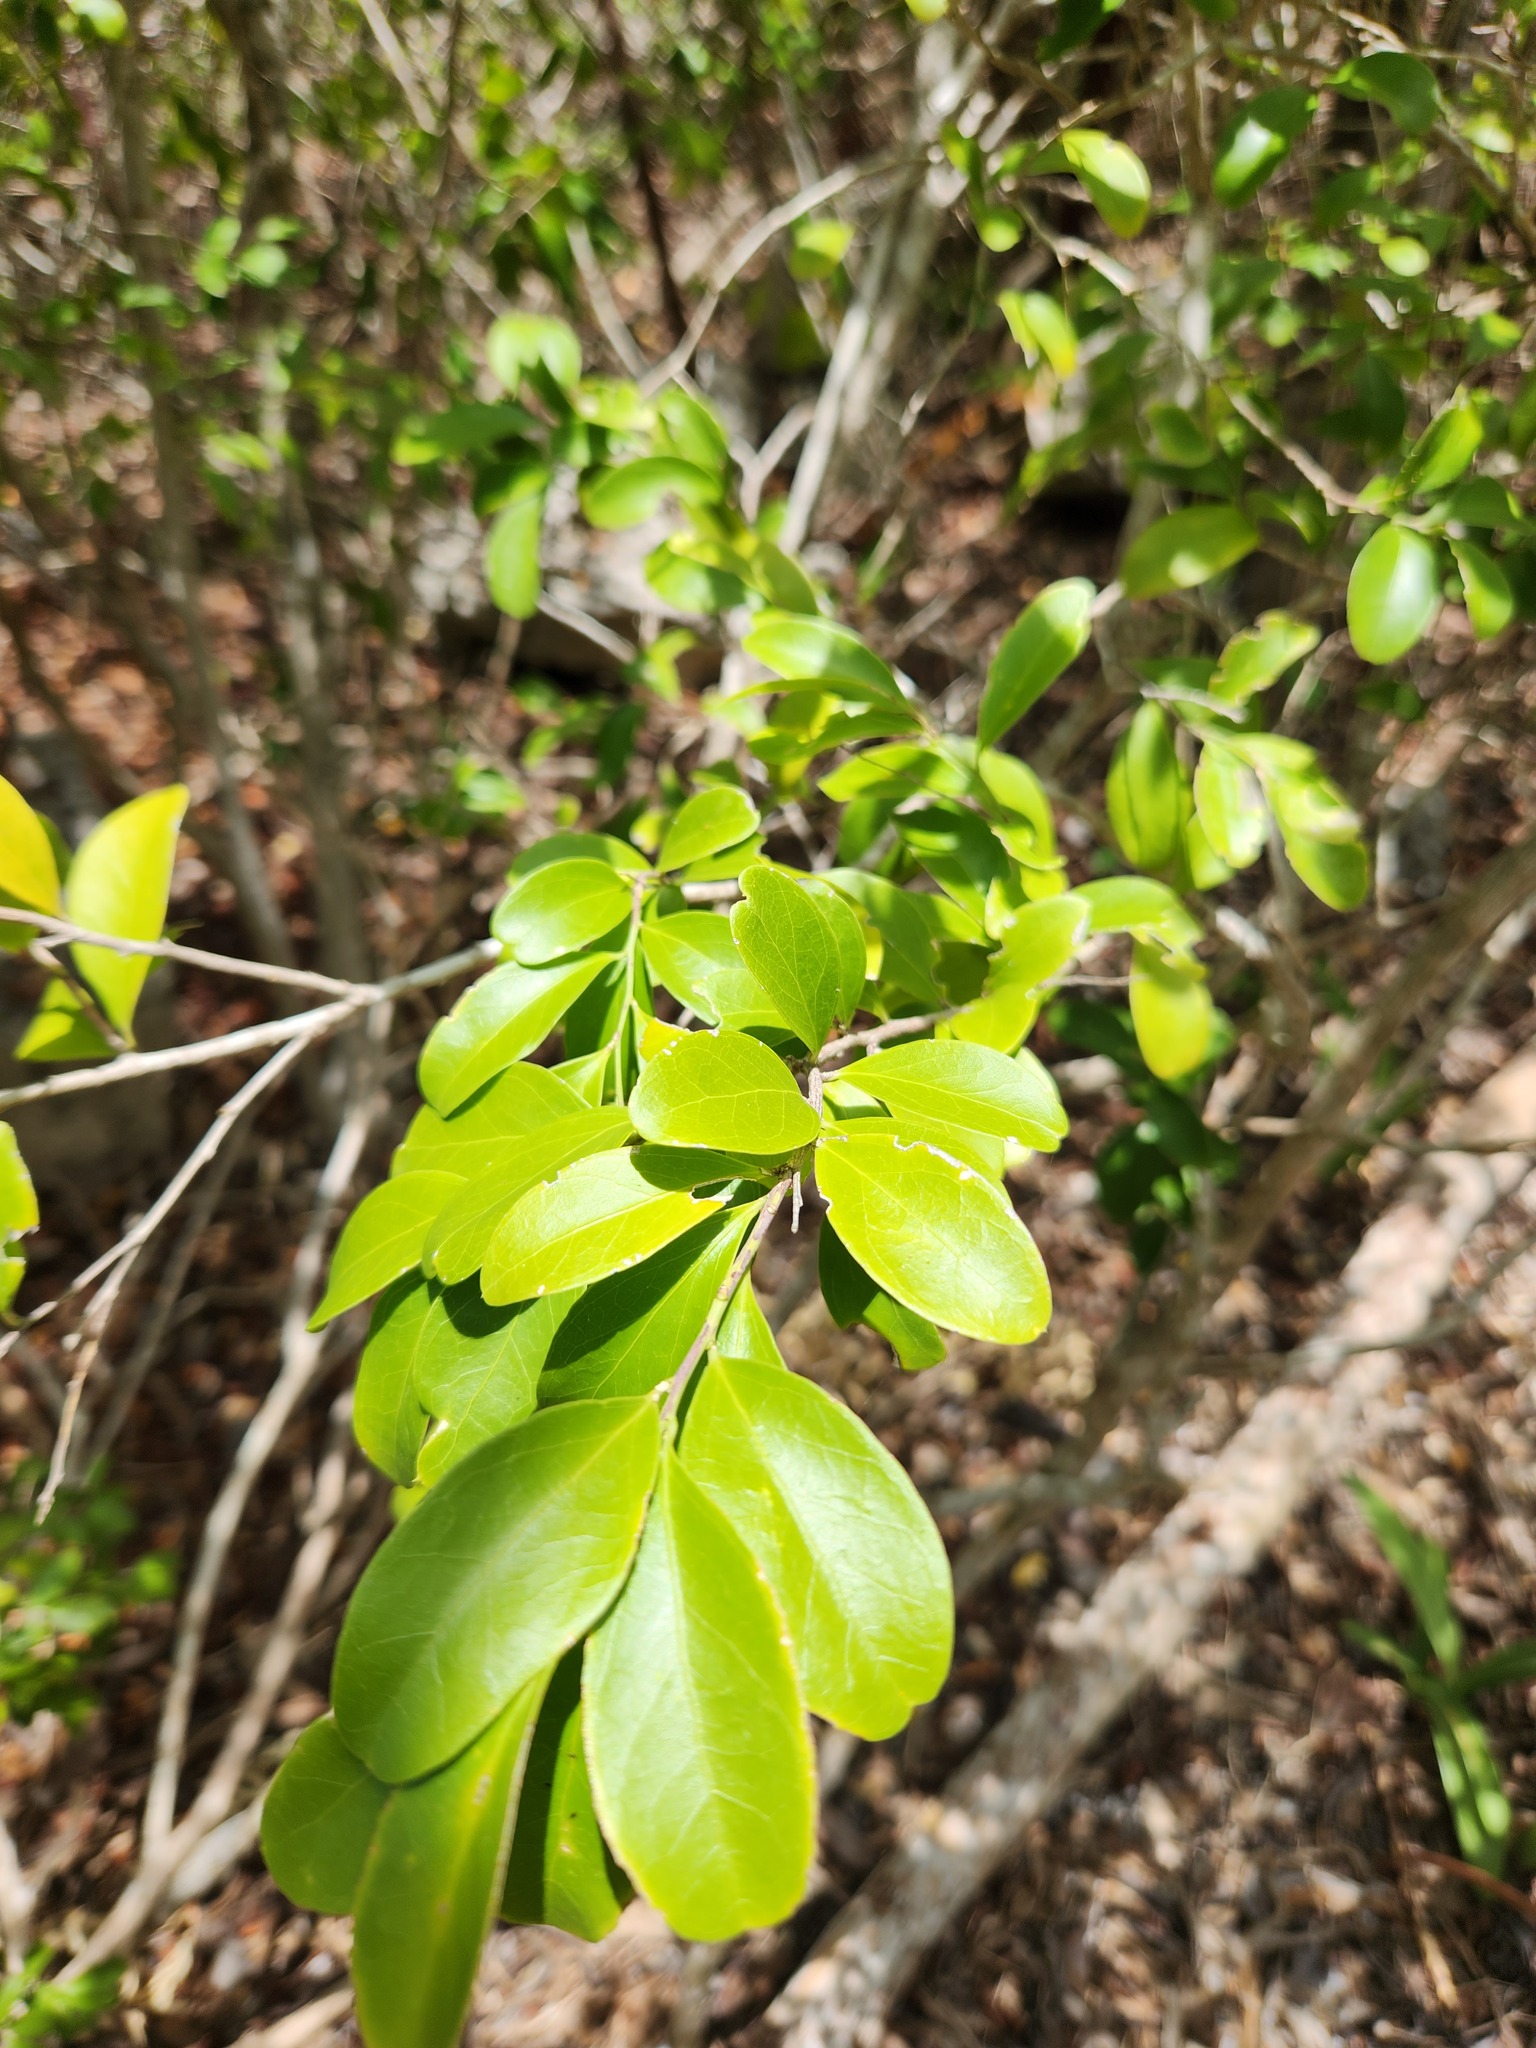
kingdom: Plantae
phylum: Tracheophyta
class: Magnoliopsida
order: Celastrales
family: Celastraceae
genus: Schaefferia
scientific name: Schaefferia frutescens
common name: Boxwood
